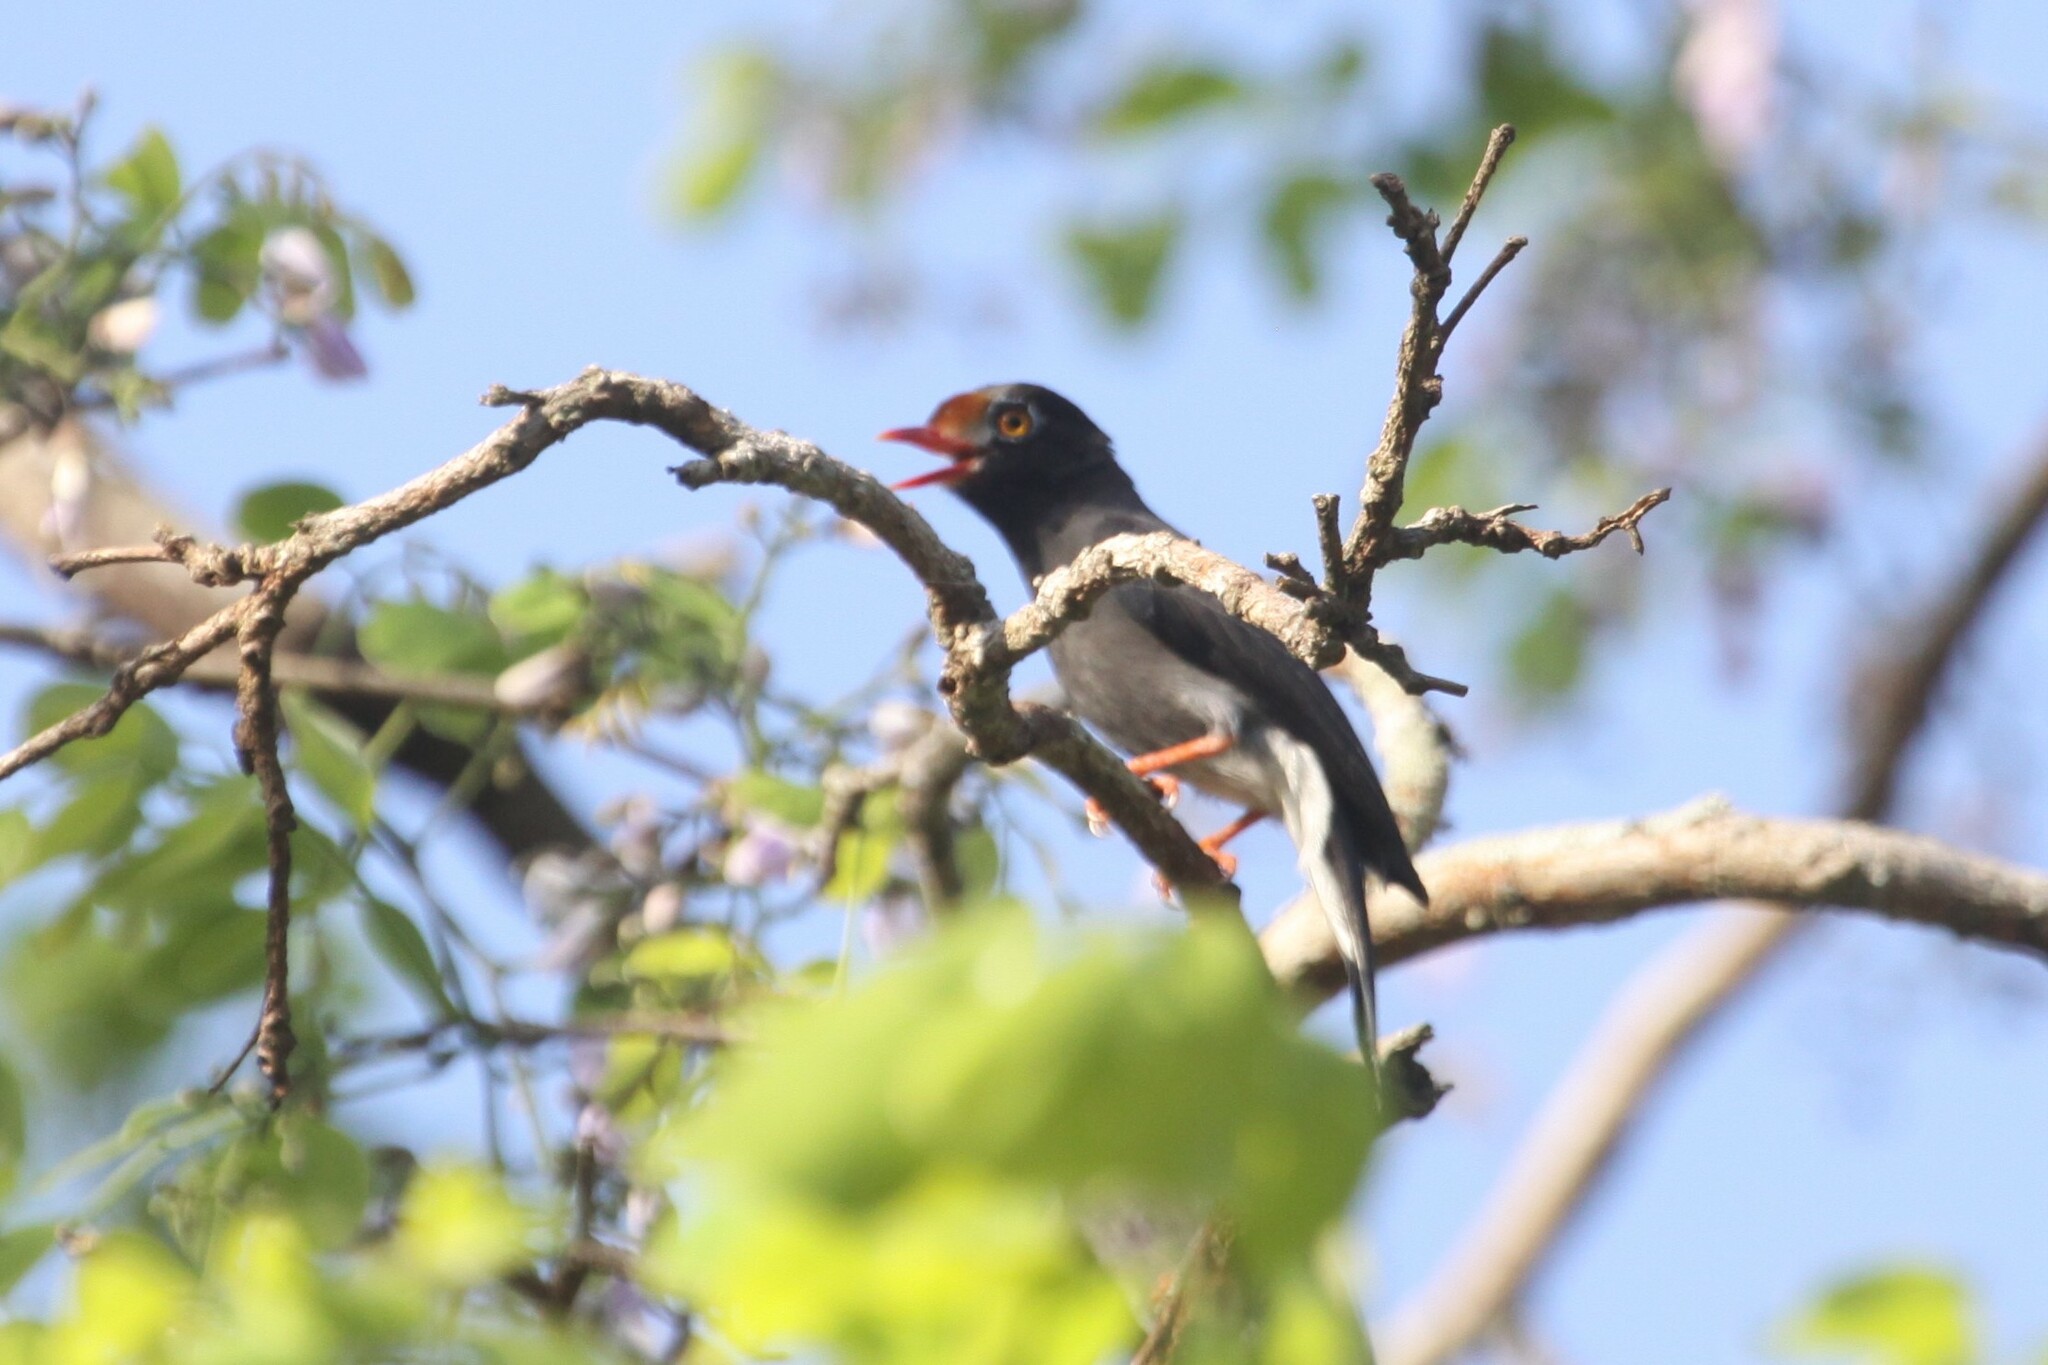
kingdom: Animalia
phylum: Chordata
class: Aves
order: Passeriformes
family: Prionopidae
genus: Prionops
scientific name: Prionops scopifrons
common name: Chestnut-fronted helmetshrike
